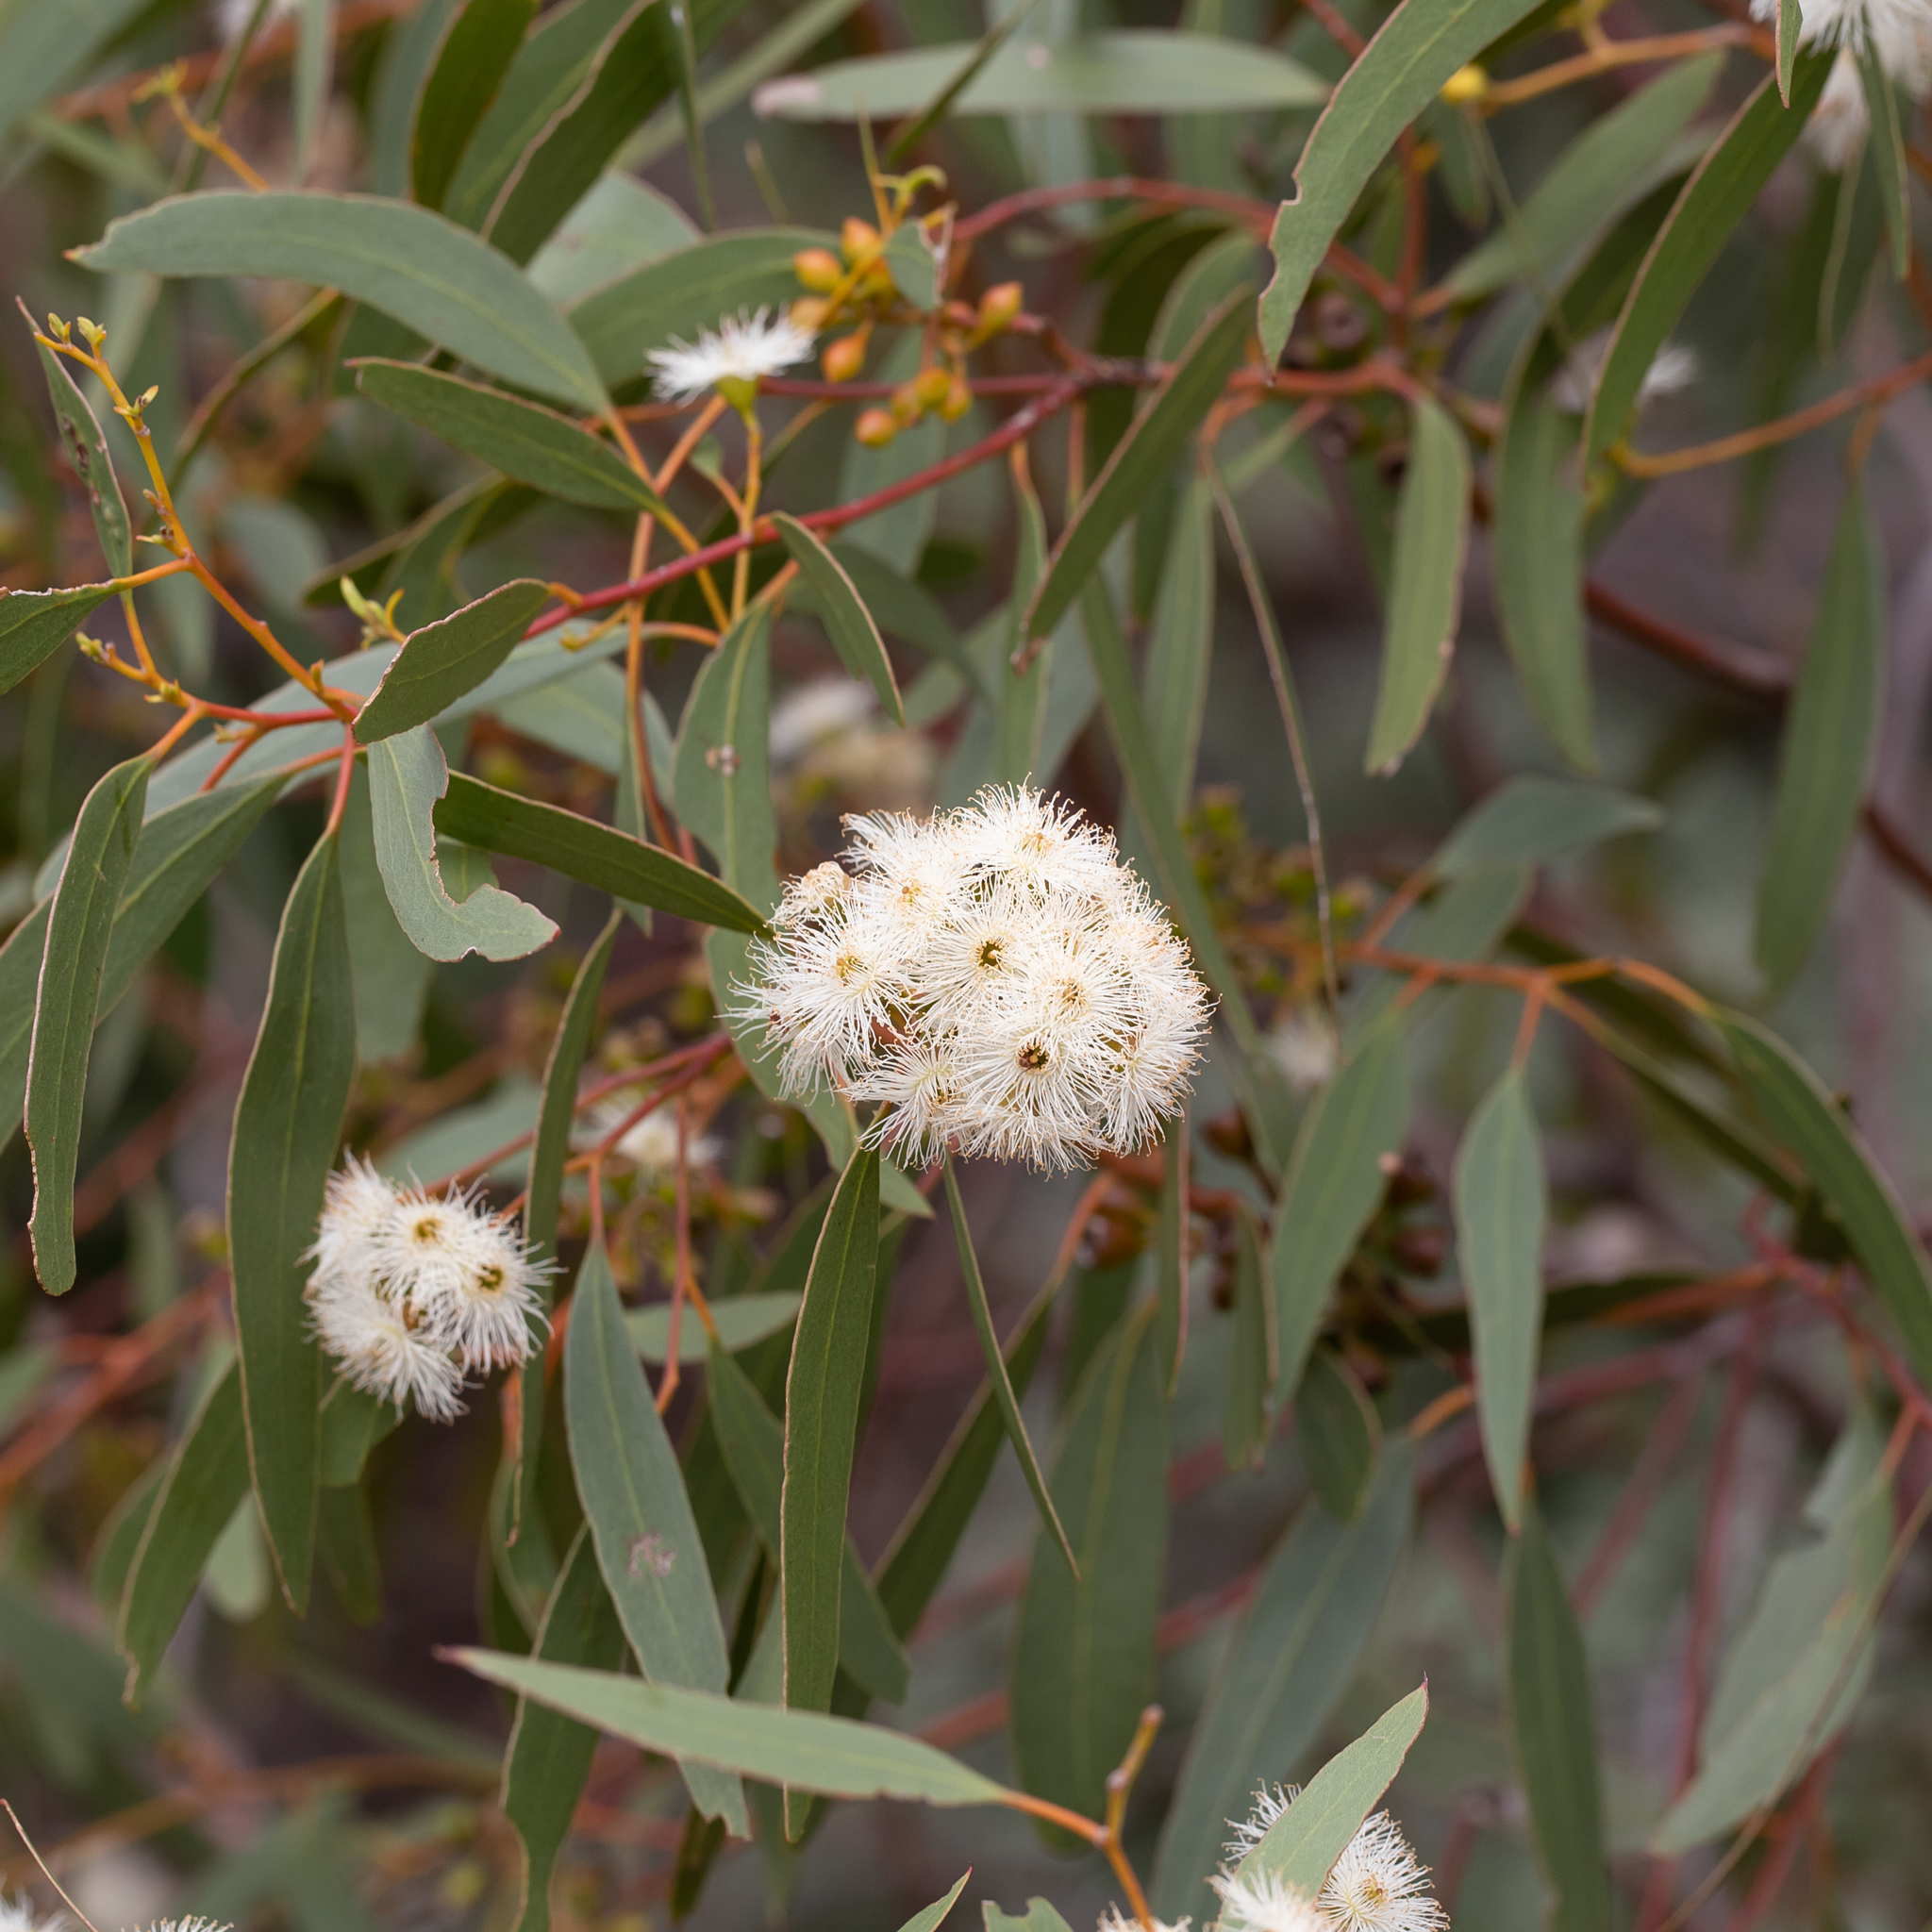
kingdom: Plantae
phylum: Tracheophyta
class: Magnoliopsida
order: Myrtales
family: Myrtaceae
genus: Eucalyptus
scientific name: Eucalyptus porosa
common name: Quorn mallee
